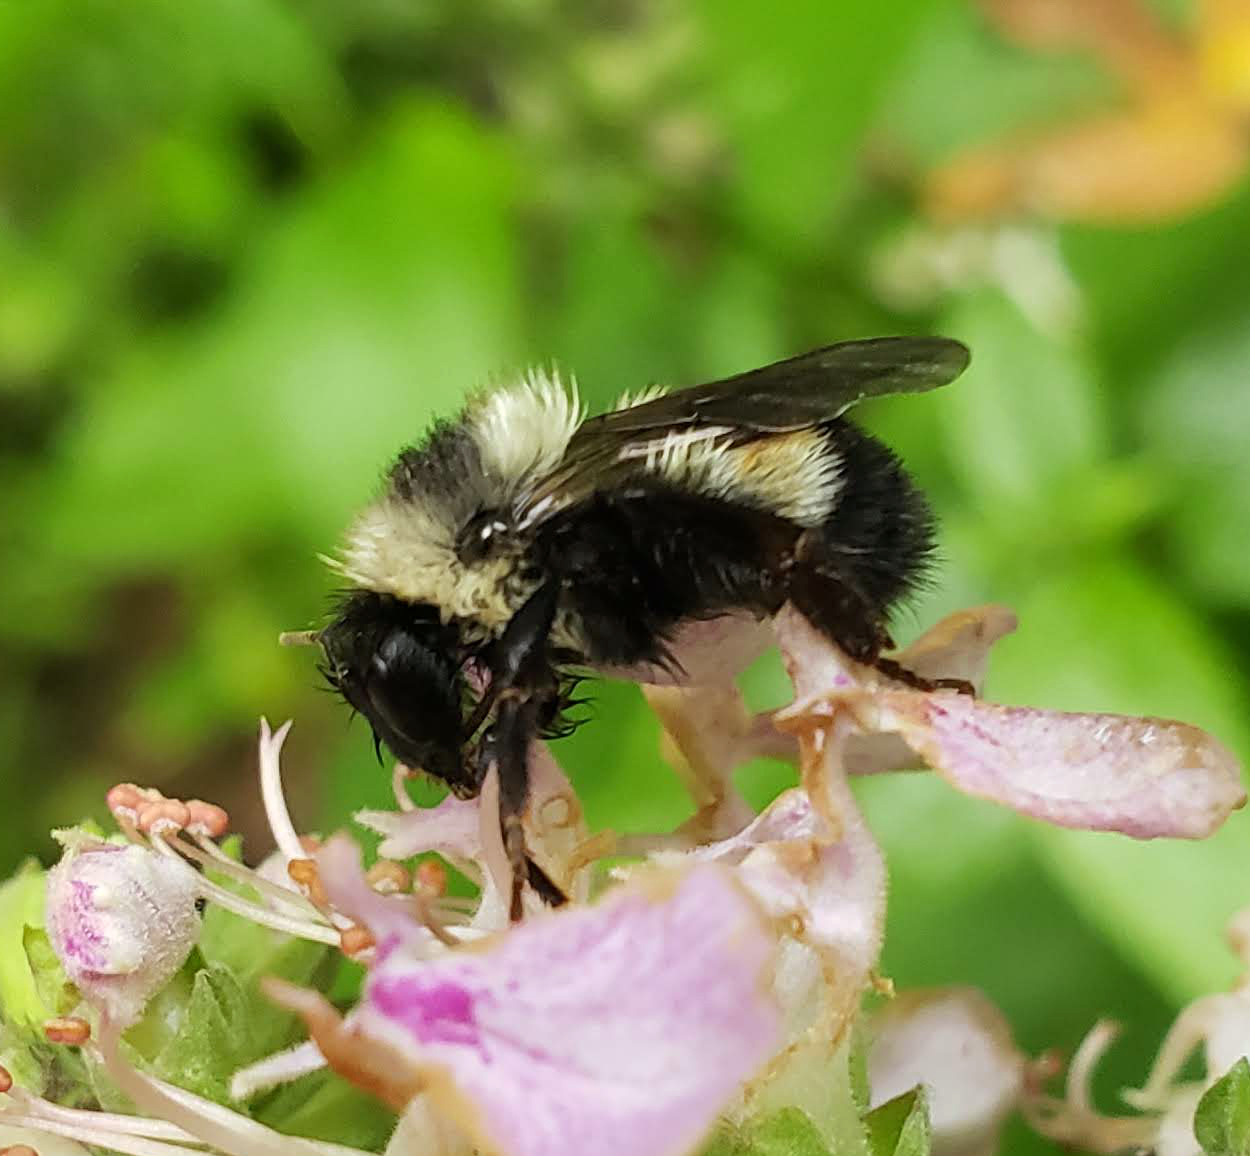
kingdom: Animalia
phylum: Arthropoda
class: Insecta
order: Hymenoptera
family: Apidae
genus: Bombus
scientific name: Bombus affinis
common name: Rusty patched bumble bee
